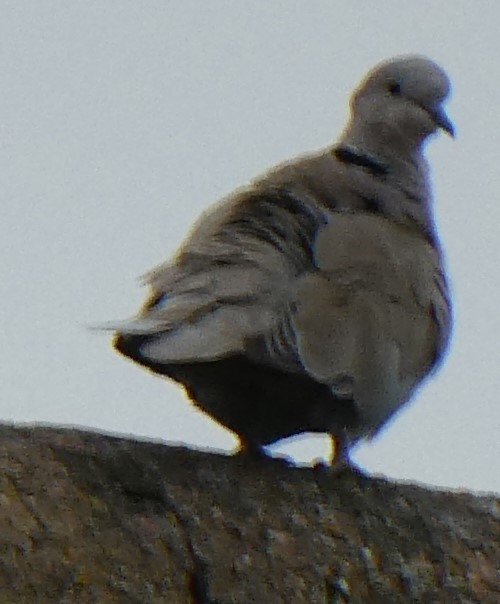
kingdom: Animalia
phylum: Chordata
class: Aves
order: Columbiformes
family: Columbidae
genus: Streptopelia
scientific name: Streptopelia decaocto
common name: Eurasian collared dove
